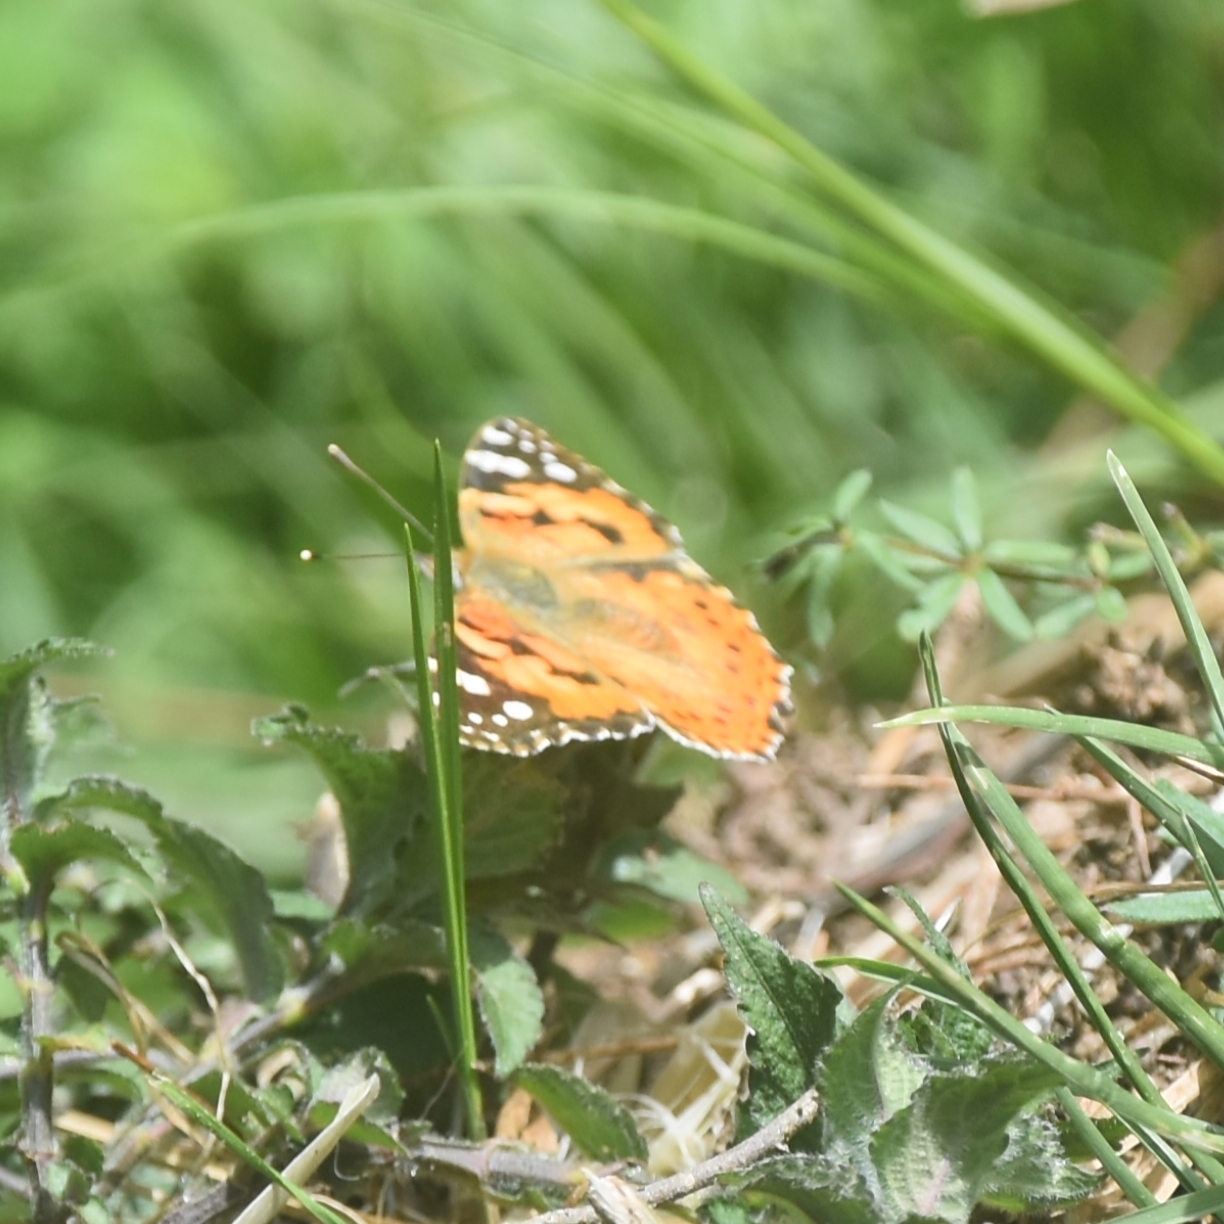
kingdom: Animalia
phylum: Arthropoda
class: Insecta
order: Lepidoptera
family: Nymphalidae
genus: Vanessa
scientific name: Vanessa cardui
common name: Painted lady
